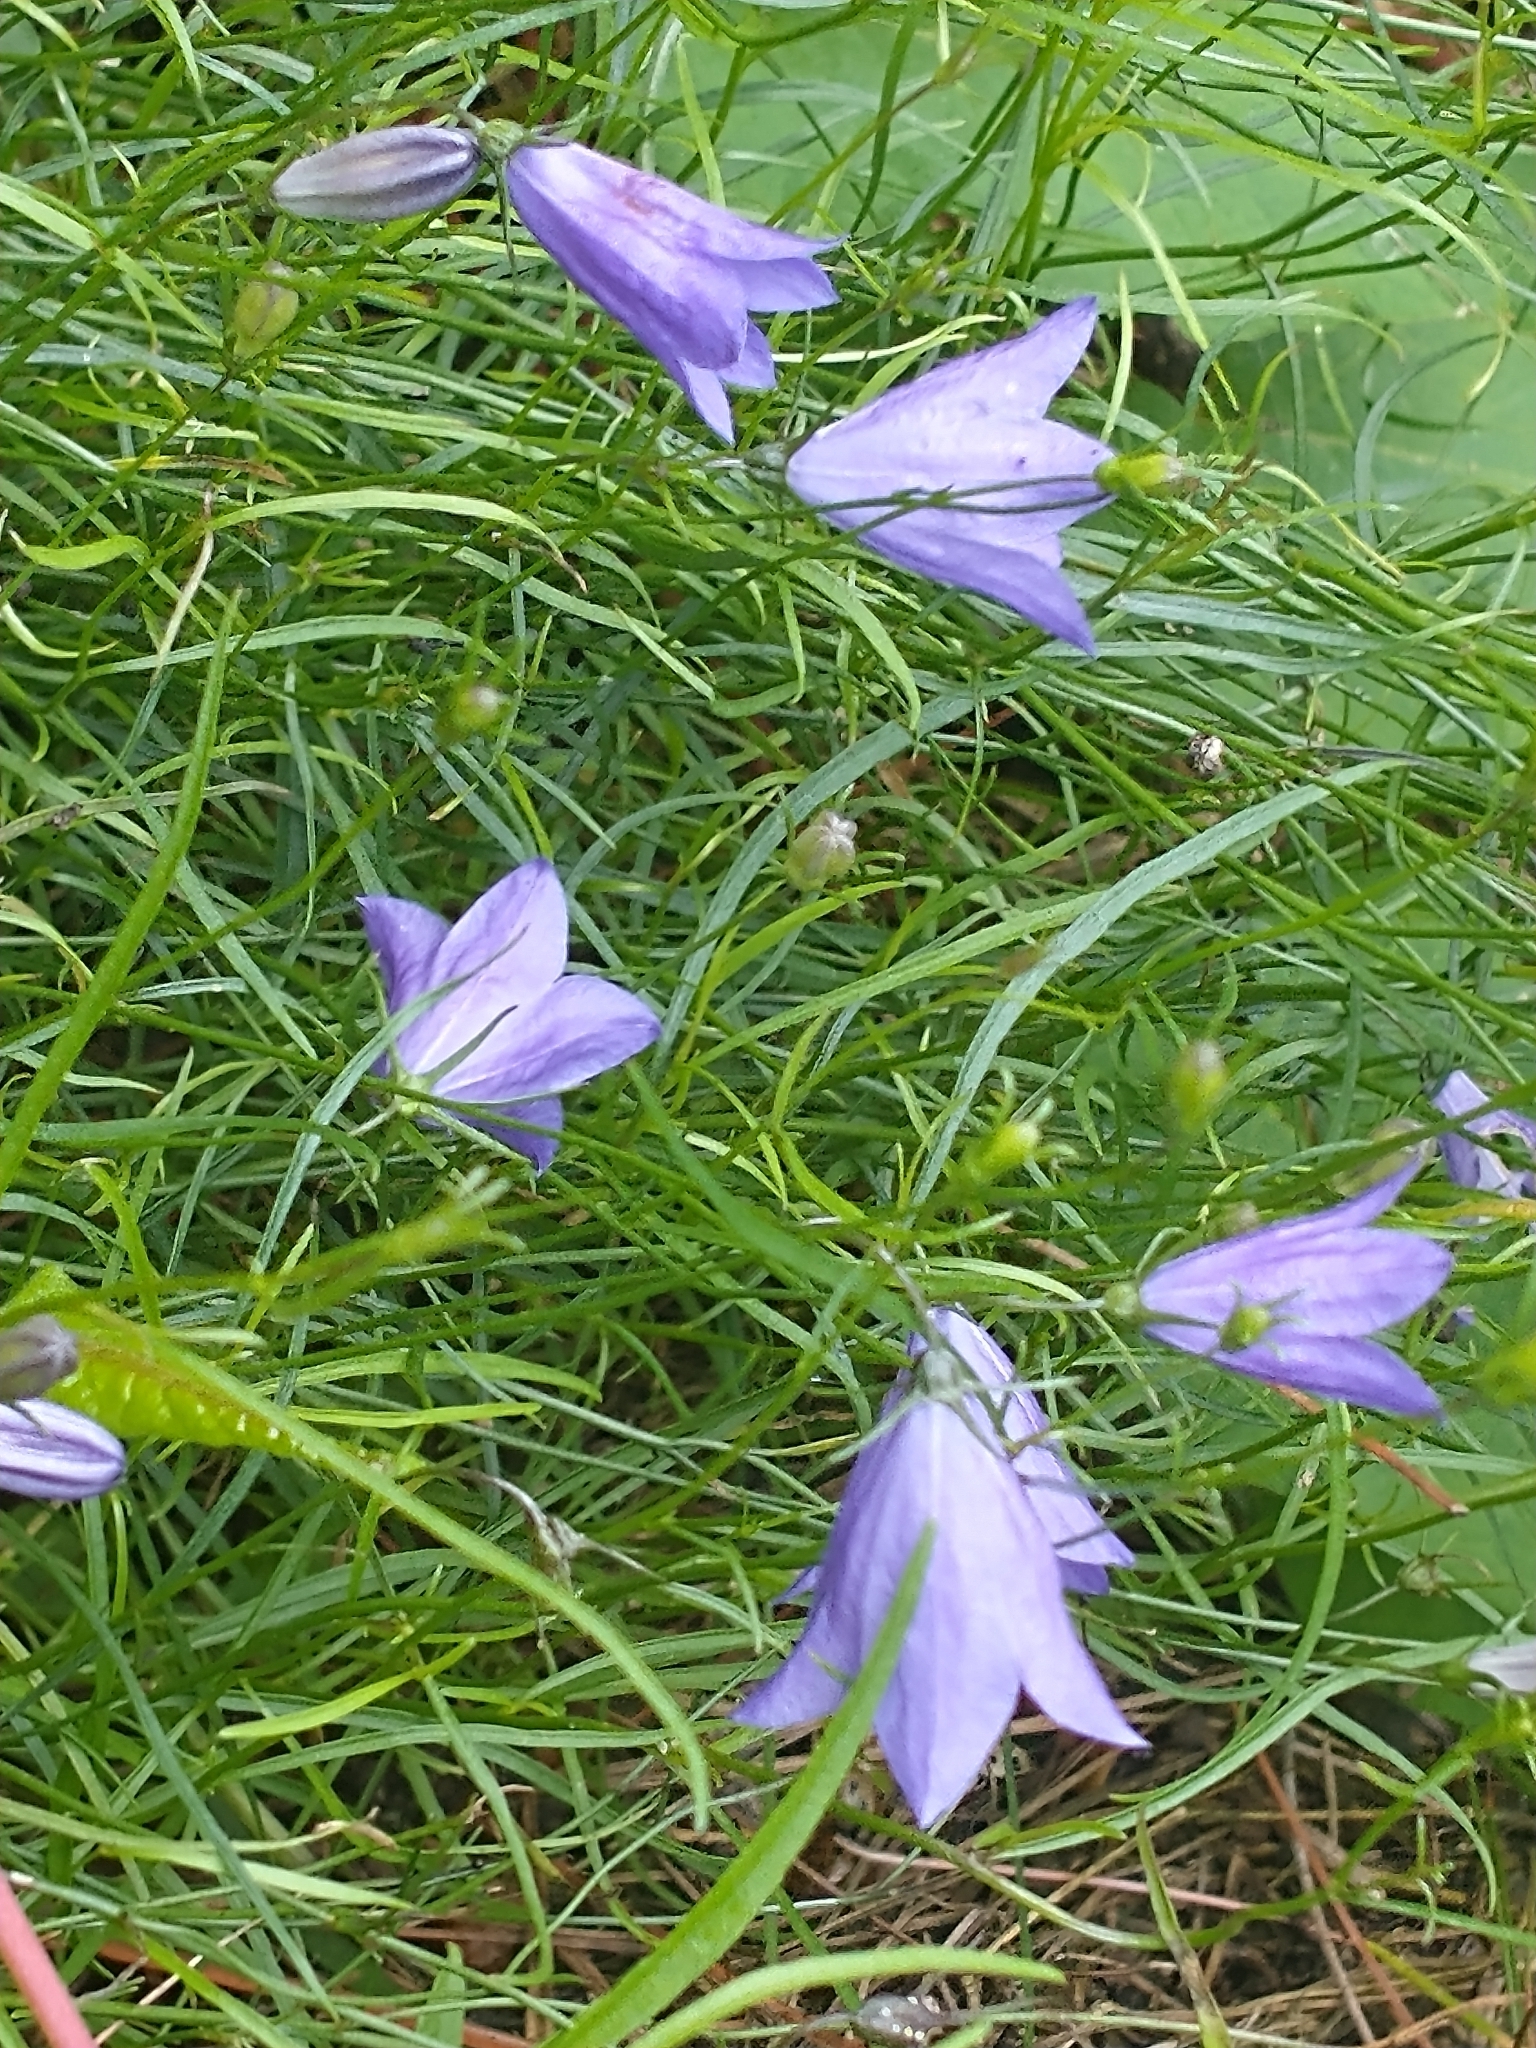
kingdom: Plantae
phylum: Tracheophyta
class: Magnoliopsida
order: Asterales
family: Campanulaceae
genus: Campanula
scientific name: Campanula intercedens
